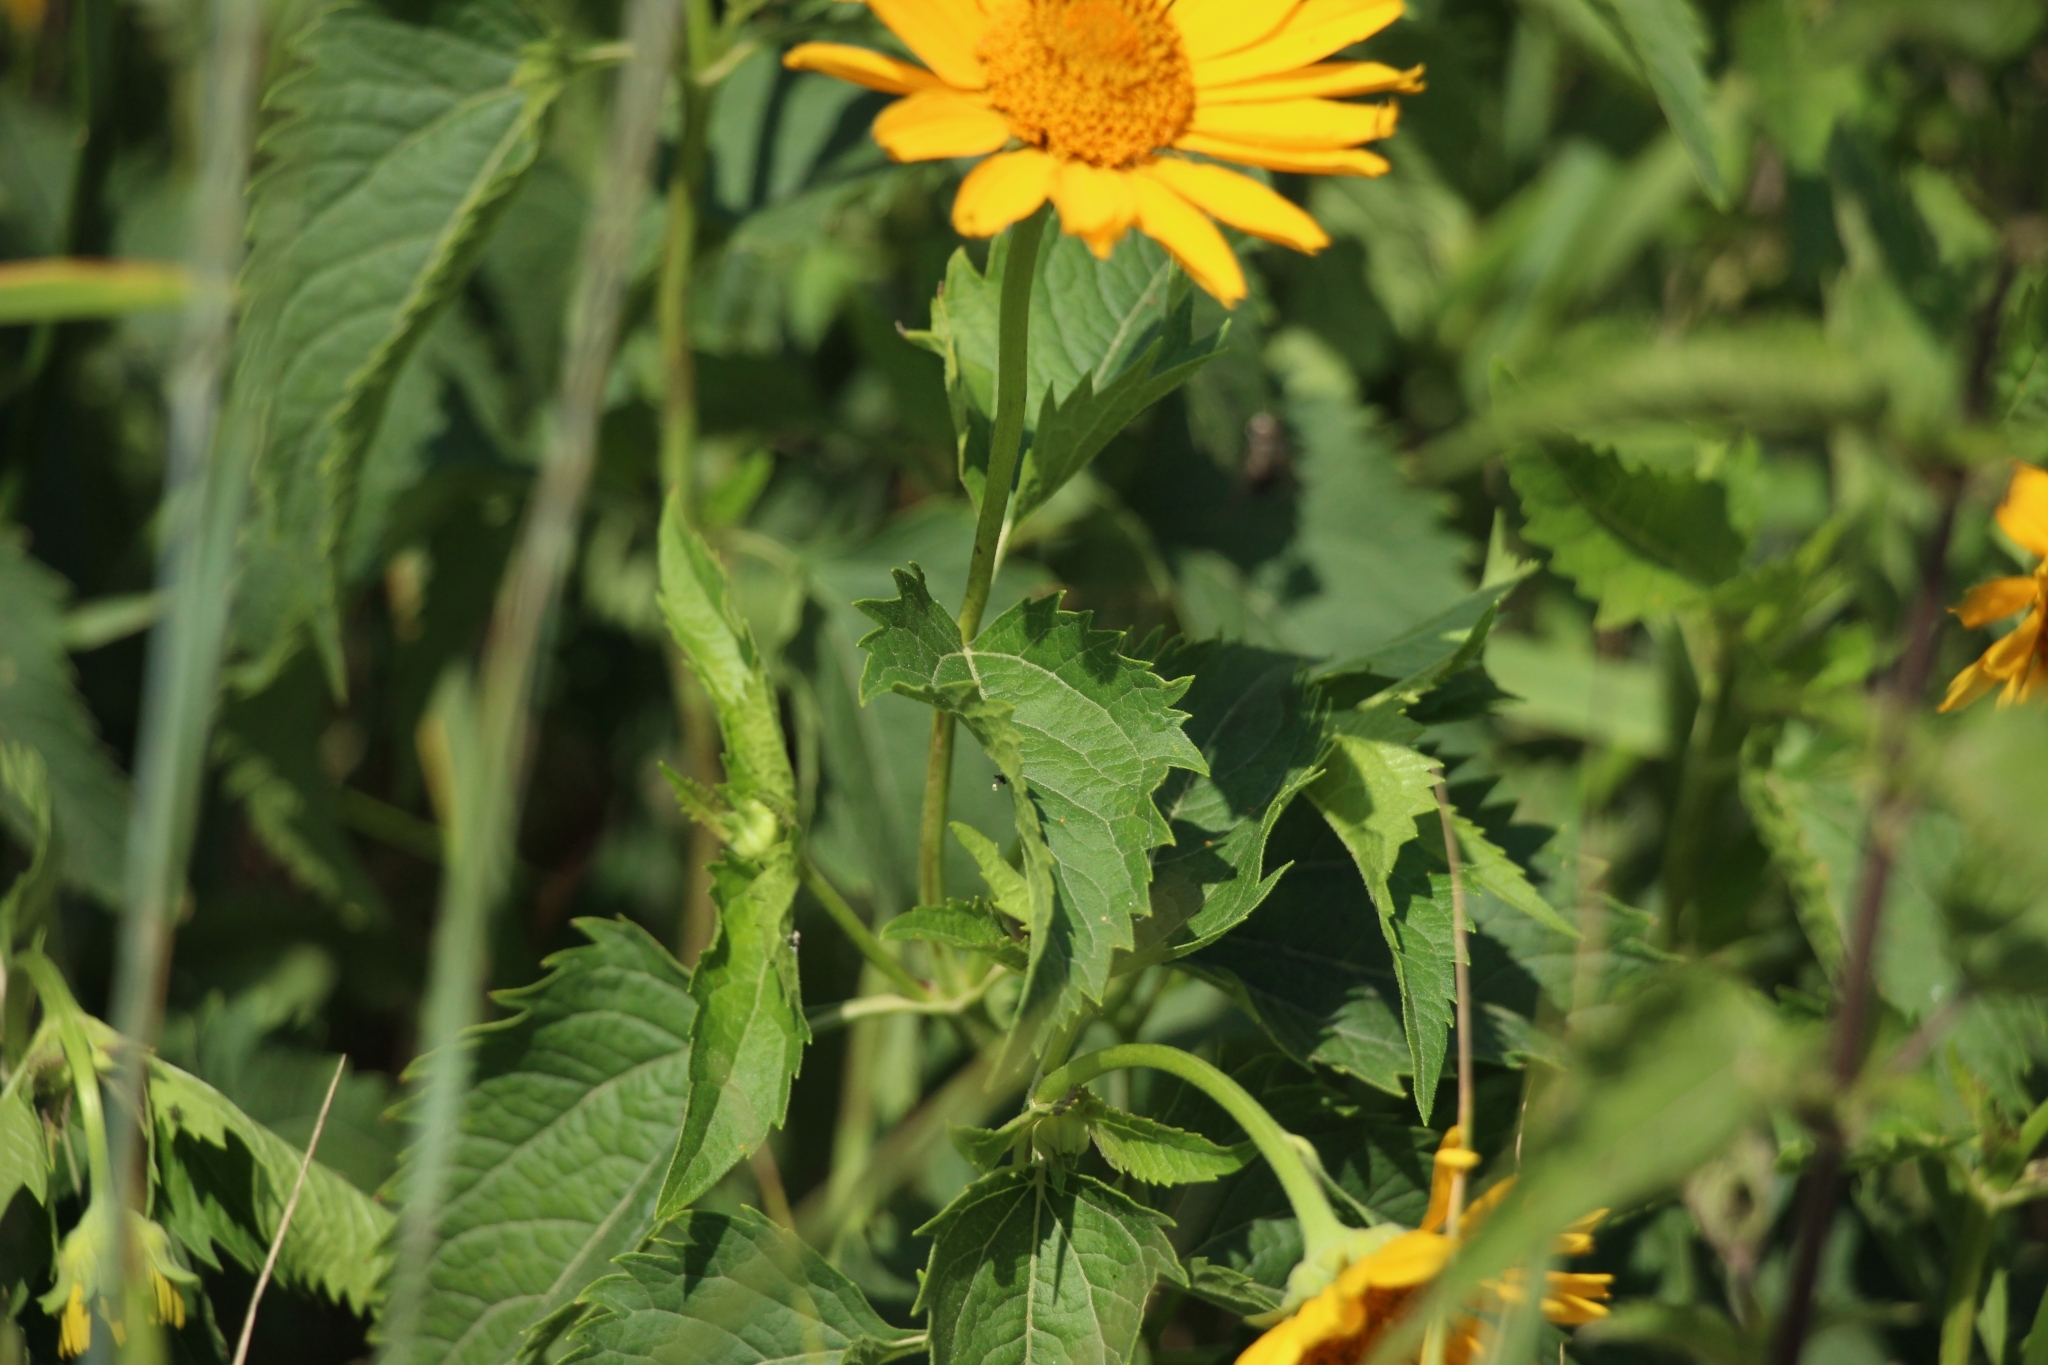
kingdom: Plantae
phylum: Tracheophyta
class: Magnoliopsida
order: Asterales
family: Asteraceae
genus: Heliopsis
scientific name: Heliopsis helianthoides
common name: False sunflower
